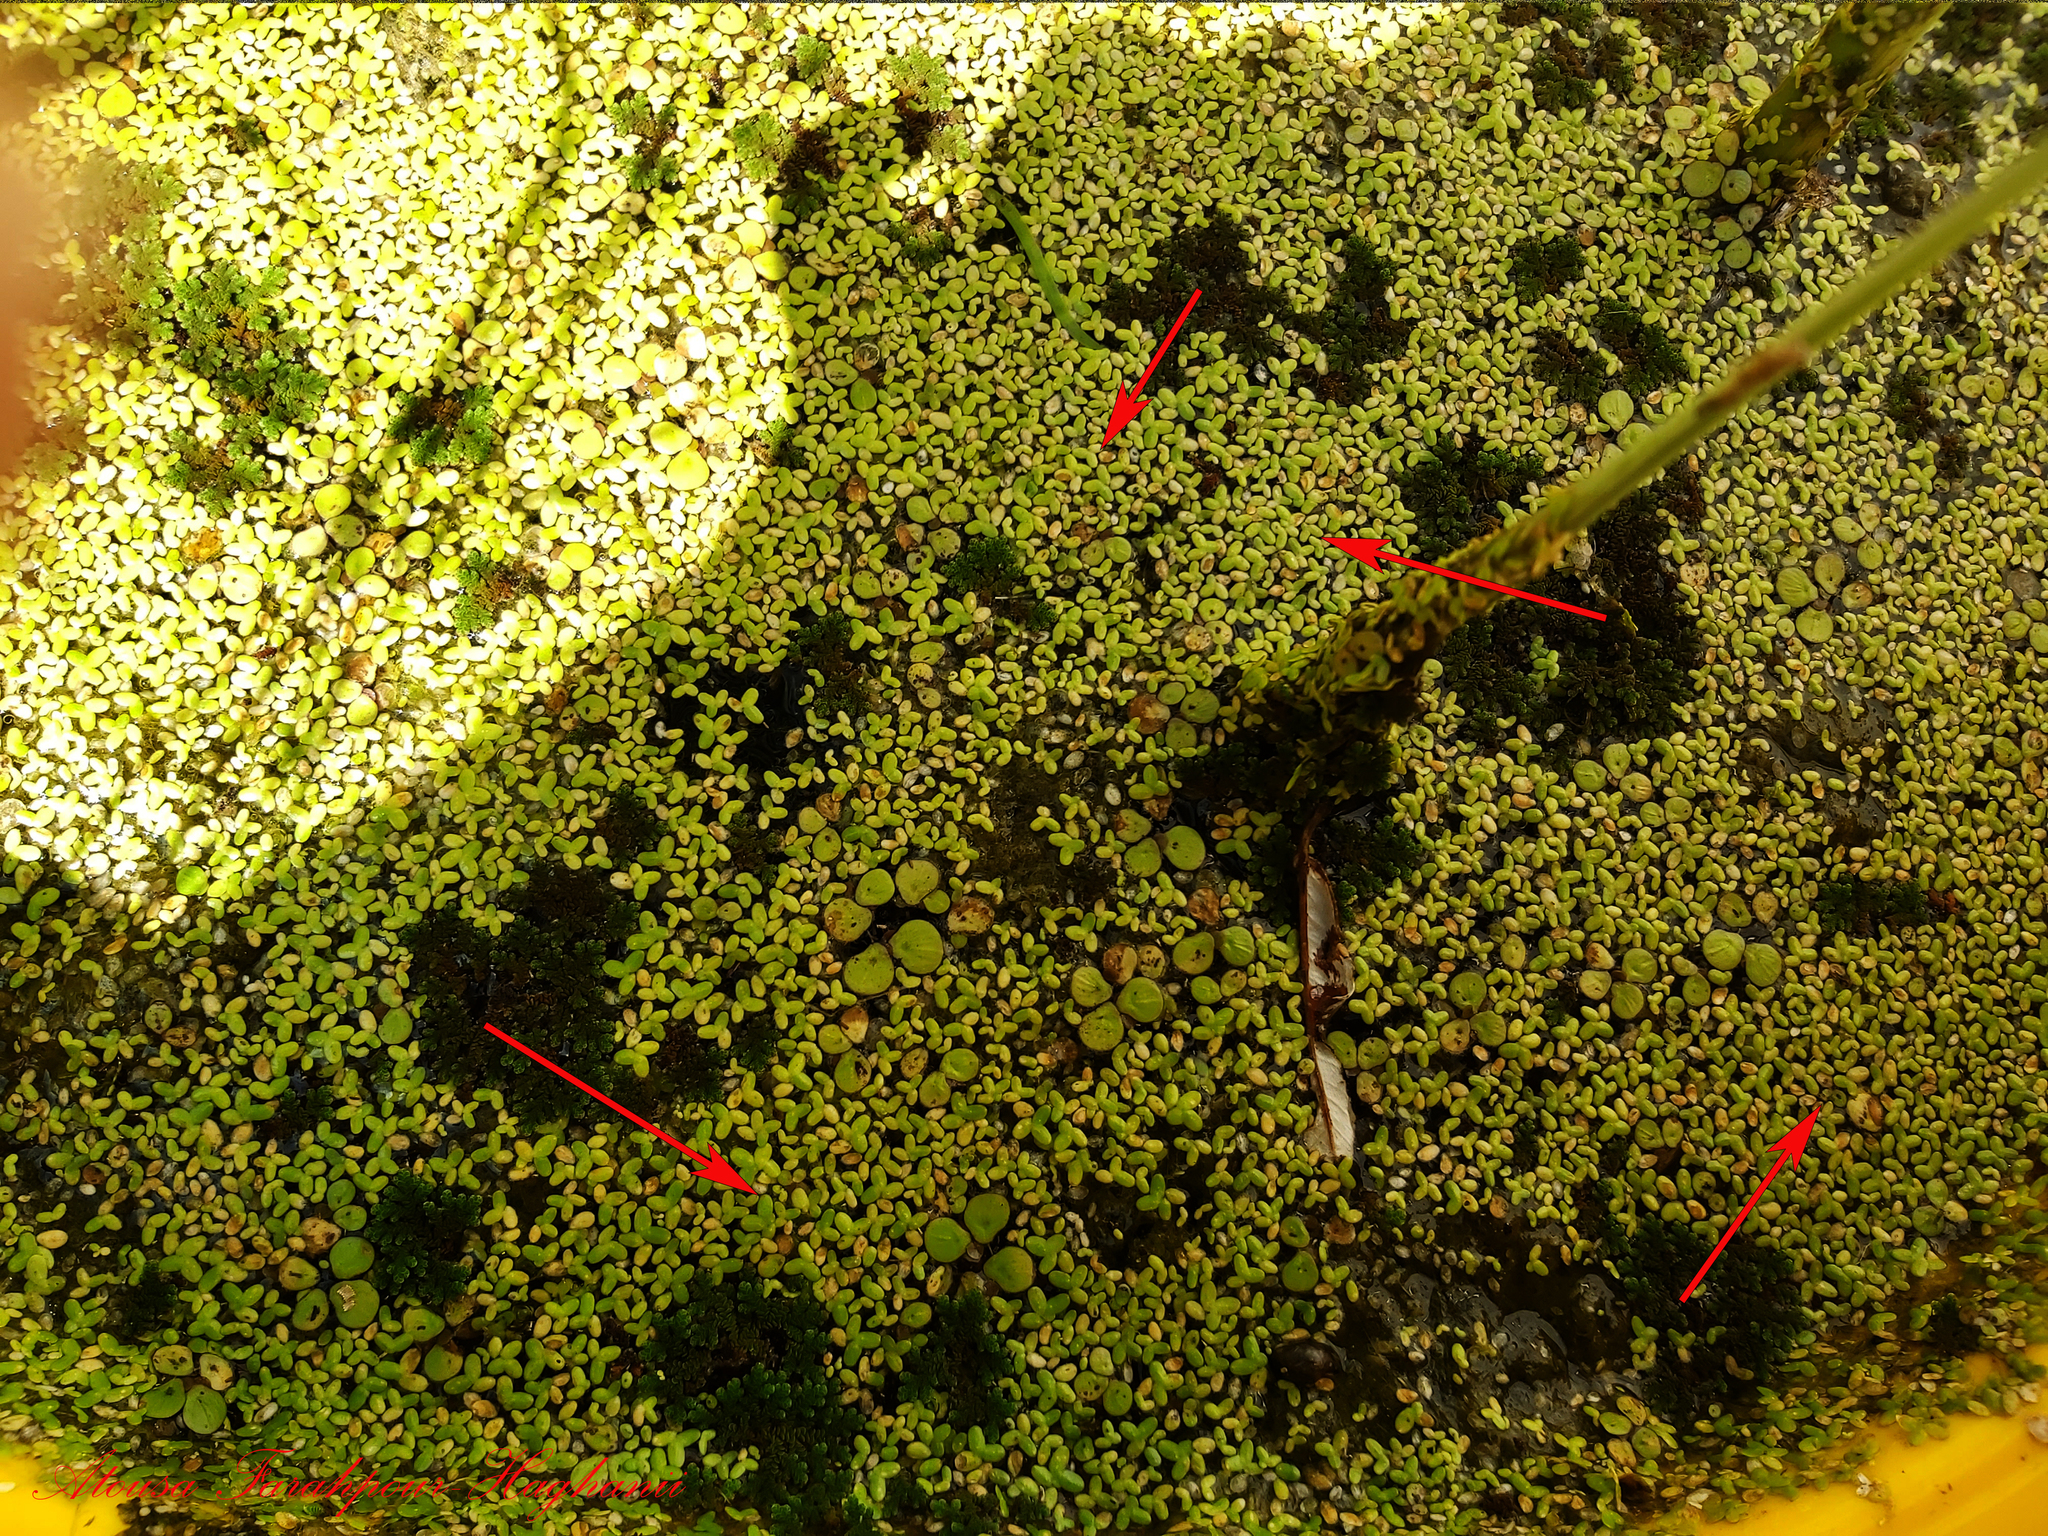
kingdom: Plantae
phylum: Tracheophyta
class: Liliopsida
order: Alismatales
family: Araceae
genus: Lemna
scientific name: Lemna minor
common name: Common duckweed
